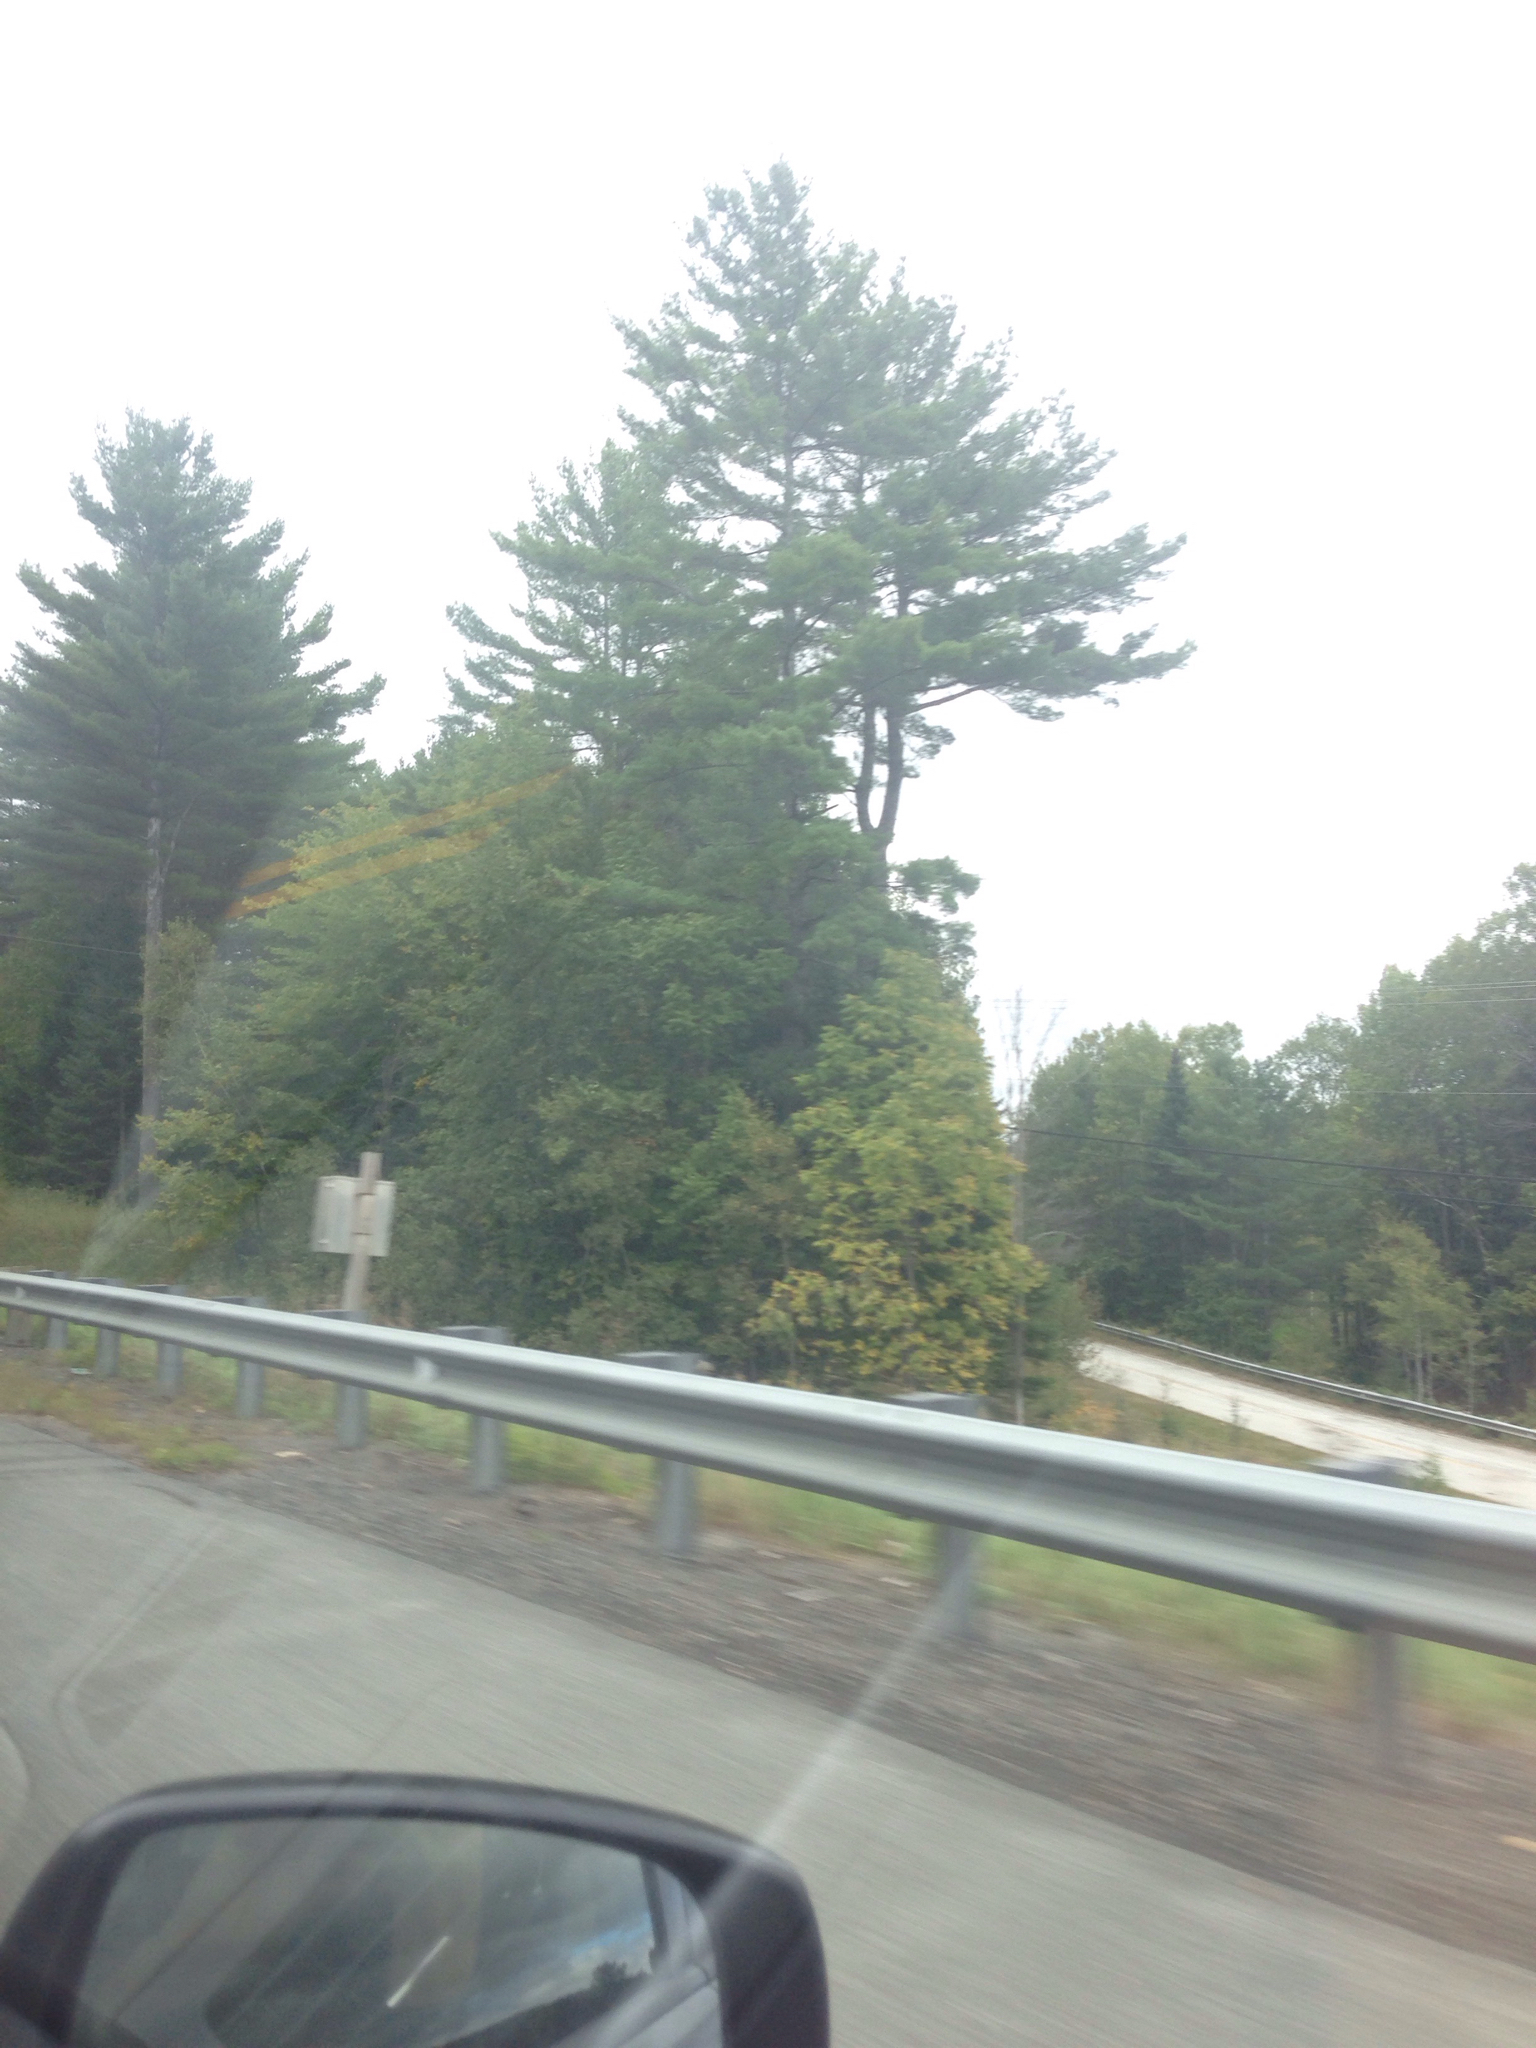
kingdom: Plantae
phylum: Tracheophyta
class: Pinopsida
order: Pinales
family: Pinaceae
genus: Pinus
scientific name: Pinus strobus
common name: Weymouth pine
